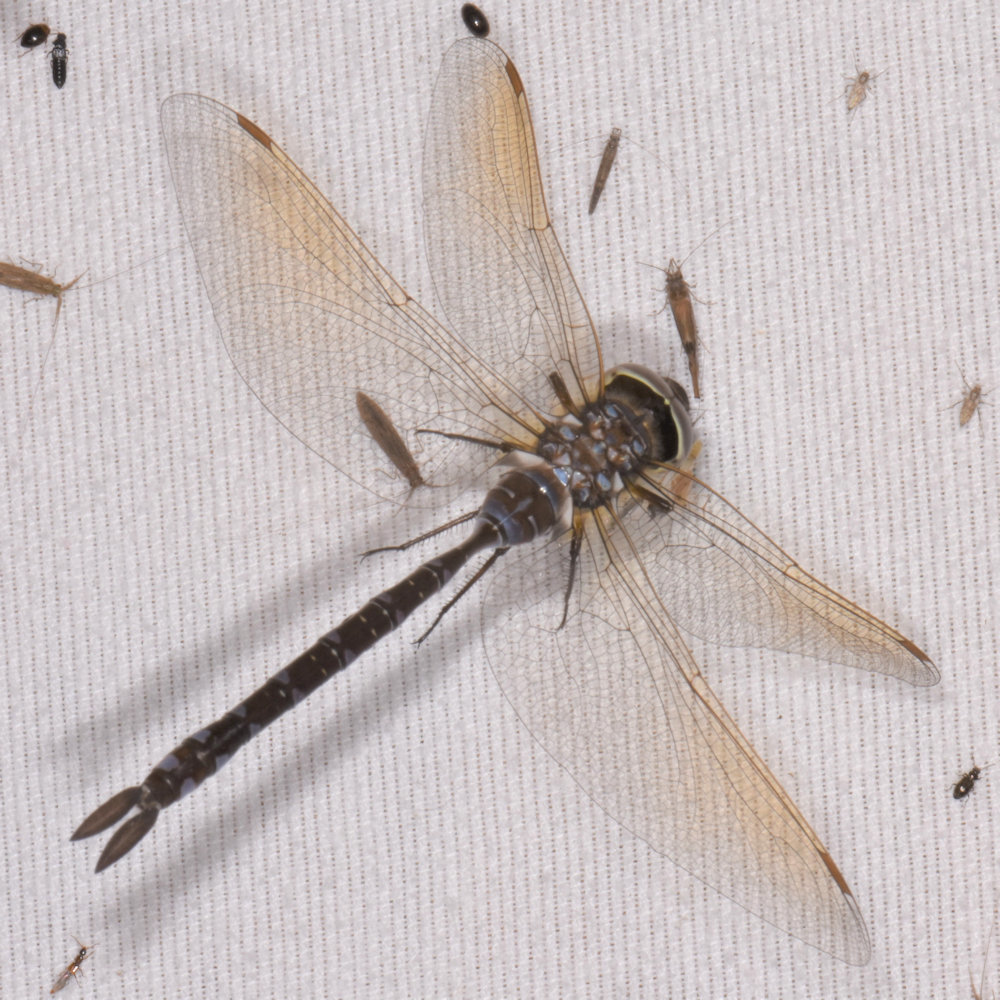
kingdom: Animalia
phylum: Arthropoda
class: Insecta
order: Odonata
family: Aeshnidae
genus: Aeshna
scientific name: Aeshna constricta
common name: Lance-tipped darner
